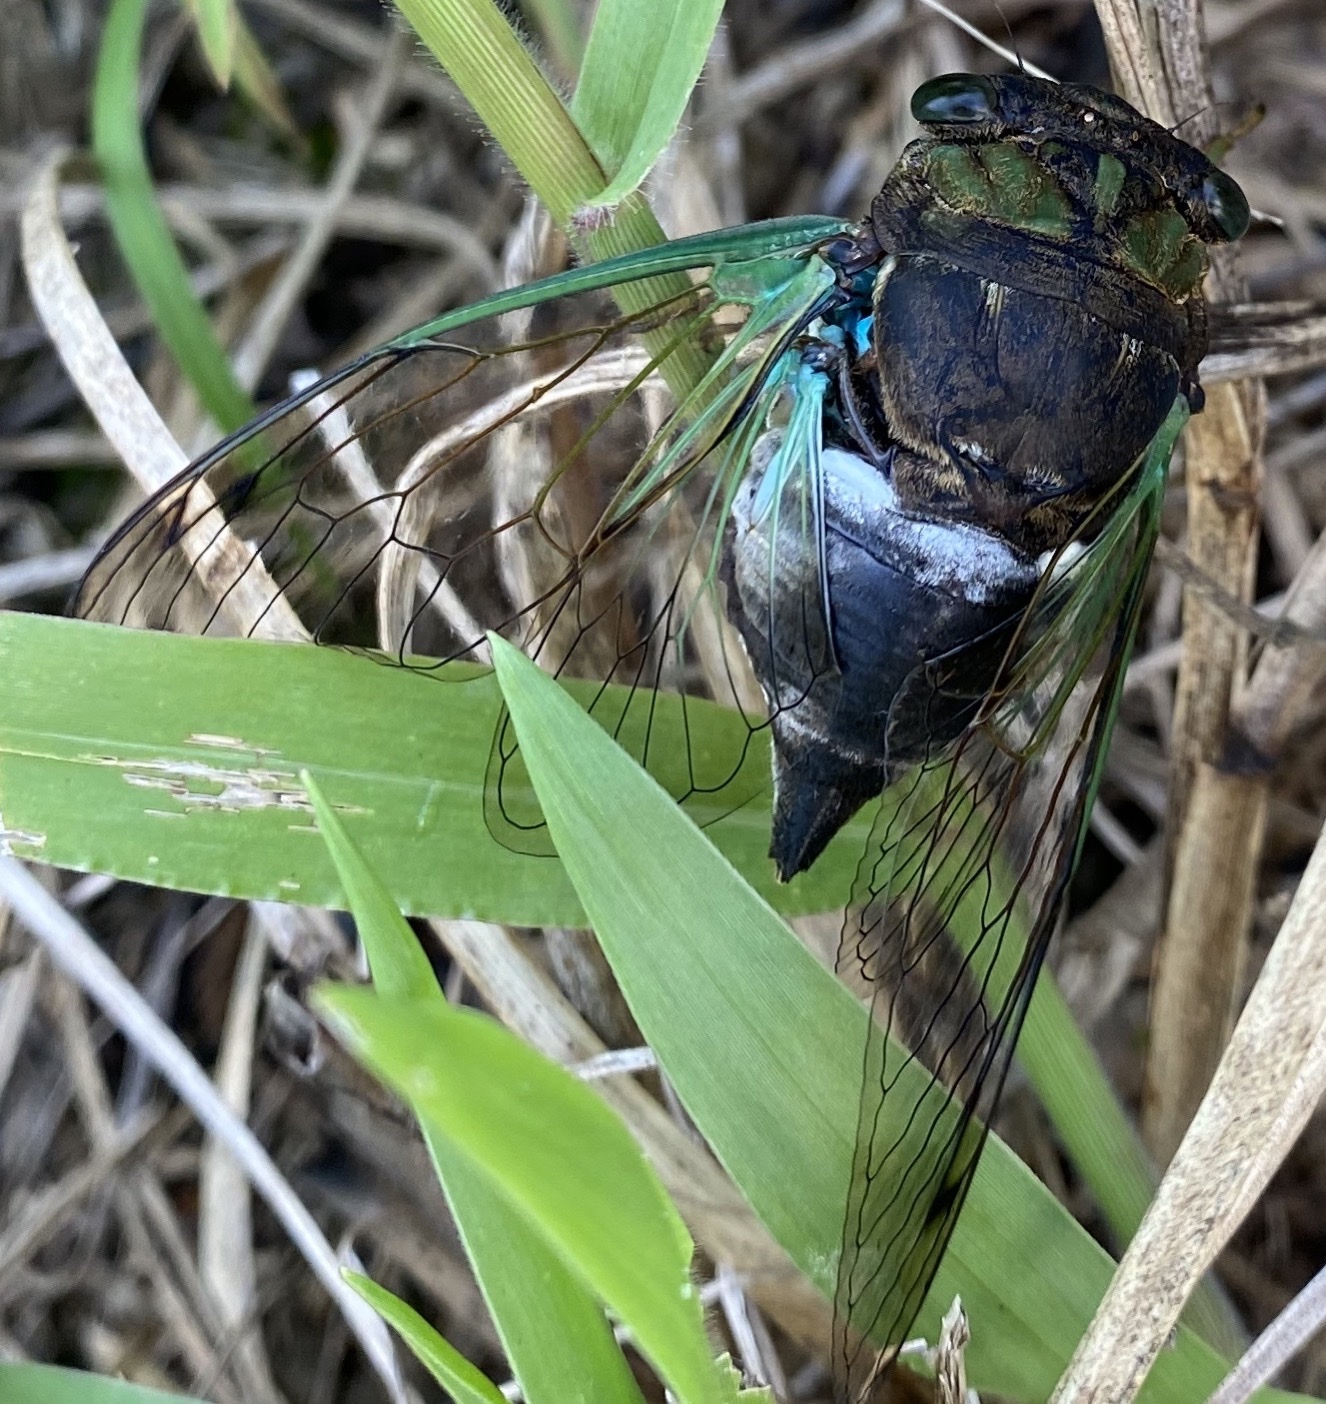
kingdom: Animalia
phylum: Arthropoda
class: Insecta
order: Hemiptera
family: Cicadidae
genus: Neotibicen
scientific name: Neotibicen tibicen
